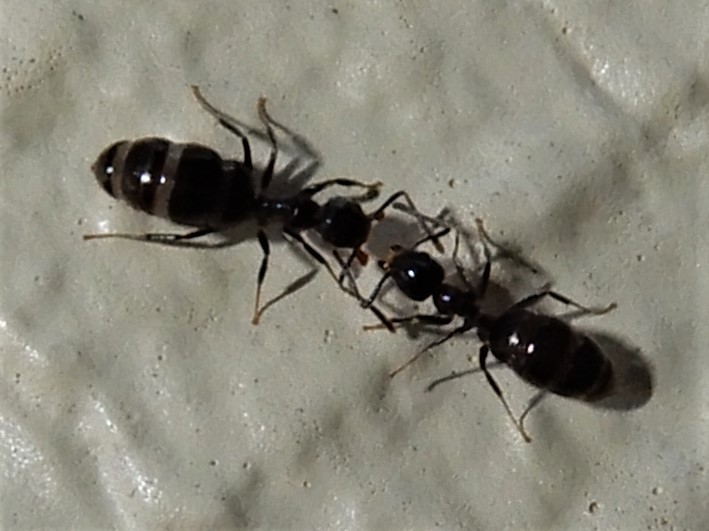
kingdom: Animalia
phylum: Arthropoda
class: Insecta
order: Hymenoptera
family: Formicidae
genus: Technomyrmex
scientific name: Technomyrmex jocosus
